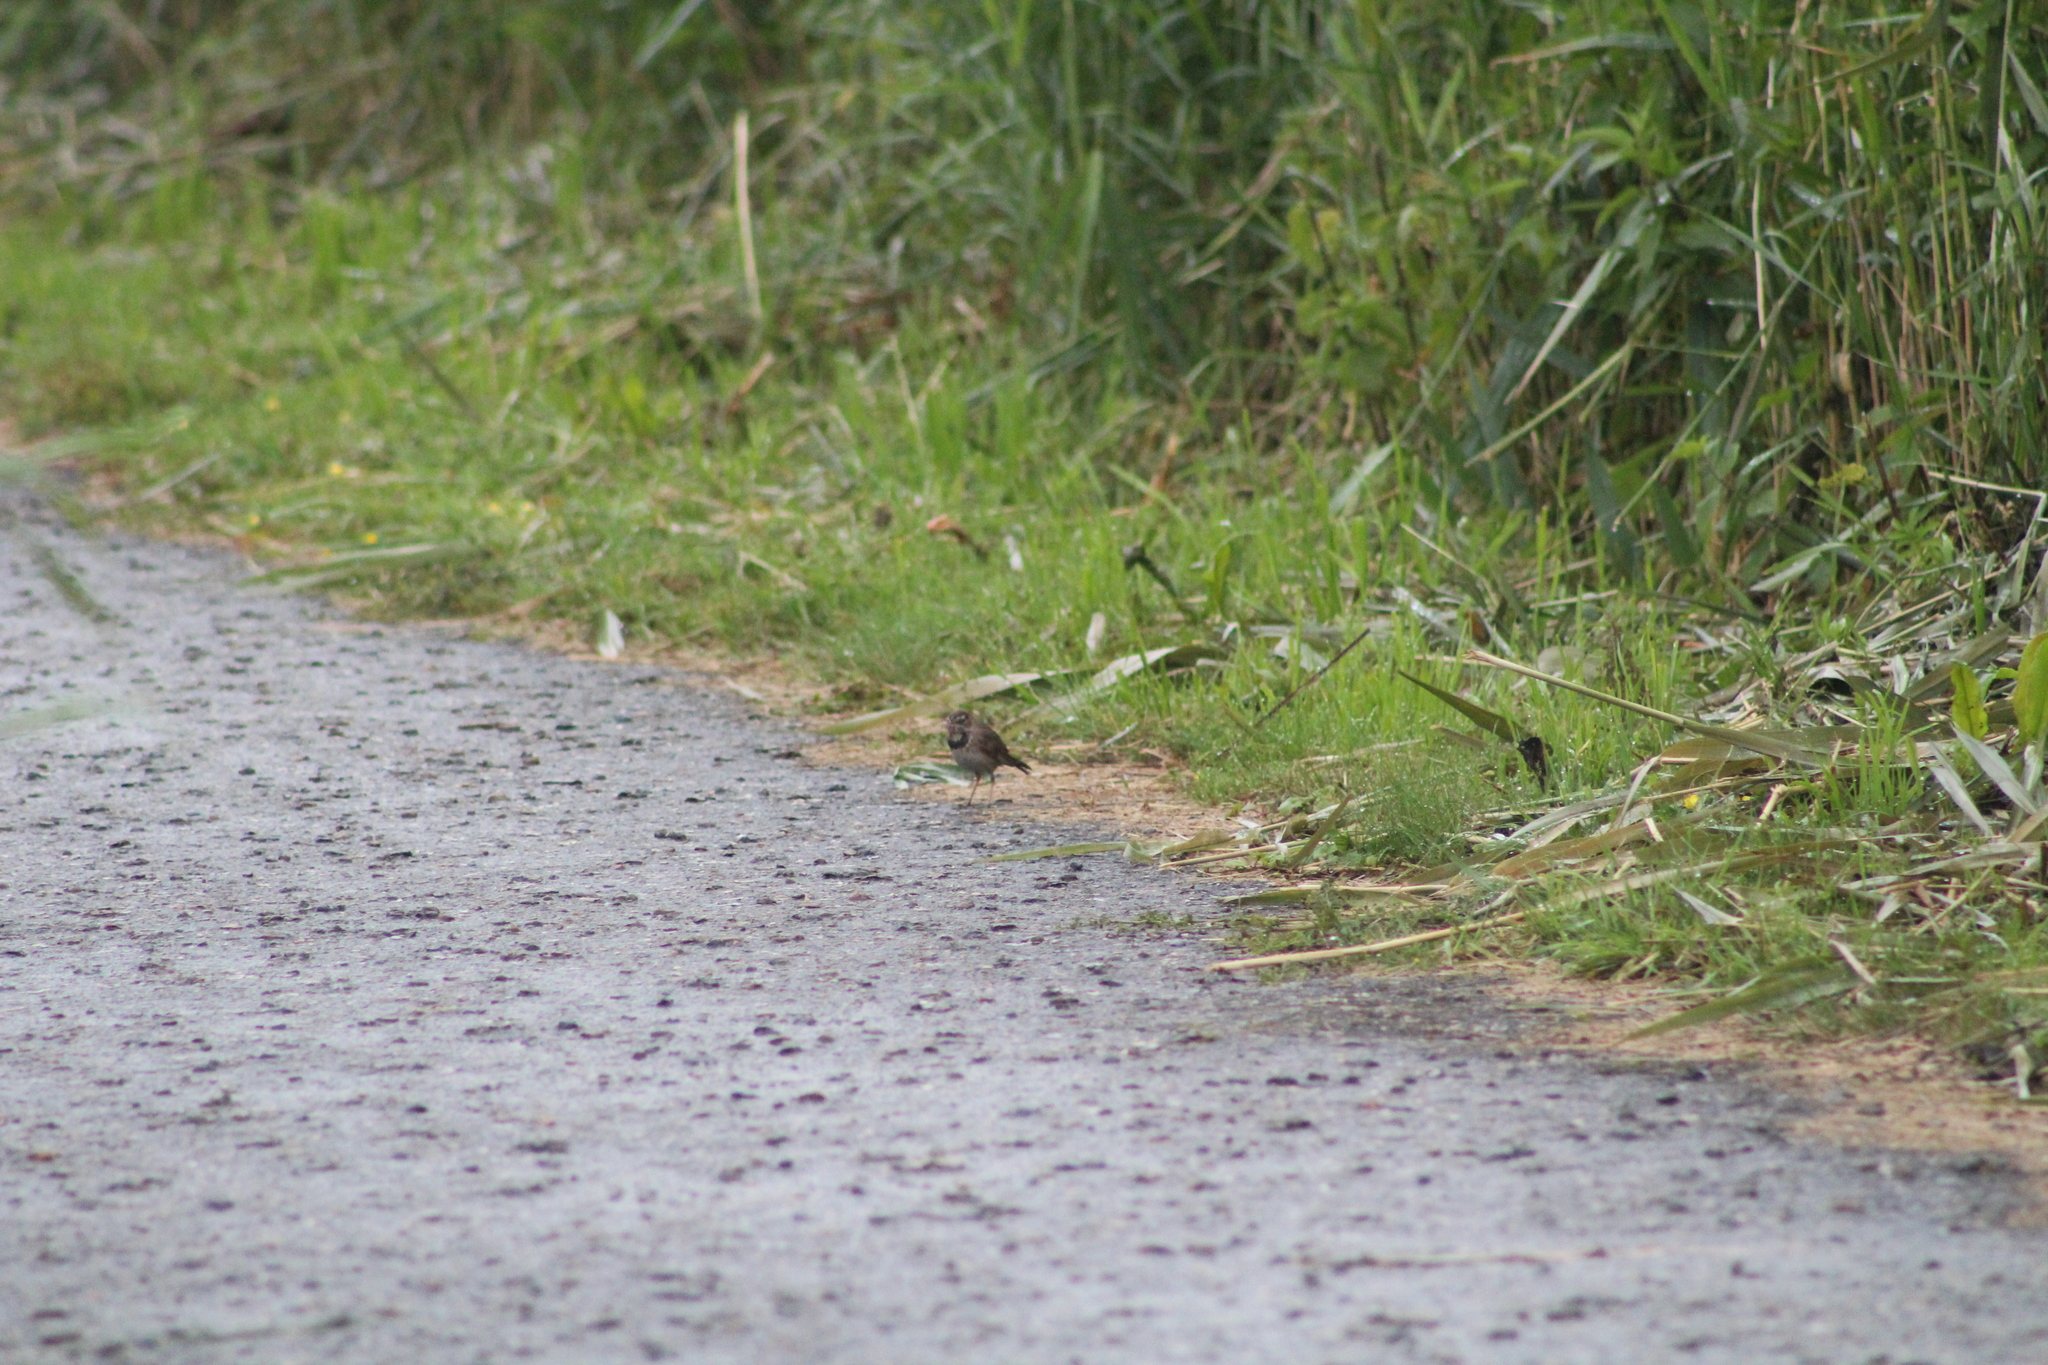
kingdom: Animalia
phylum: Chordata
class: Aves
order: Passeriformes
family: Muscicapidae
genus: Luscinia
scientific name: Luscinia svecica
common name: Bluethroat
